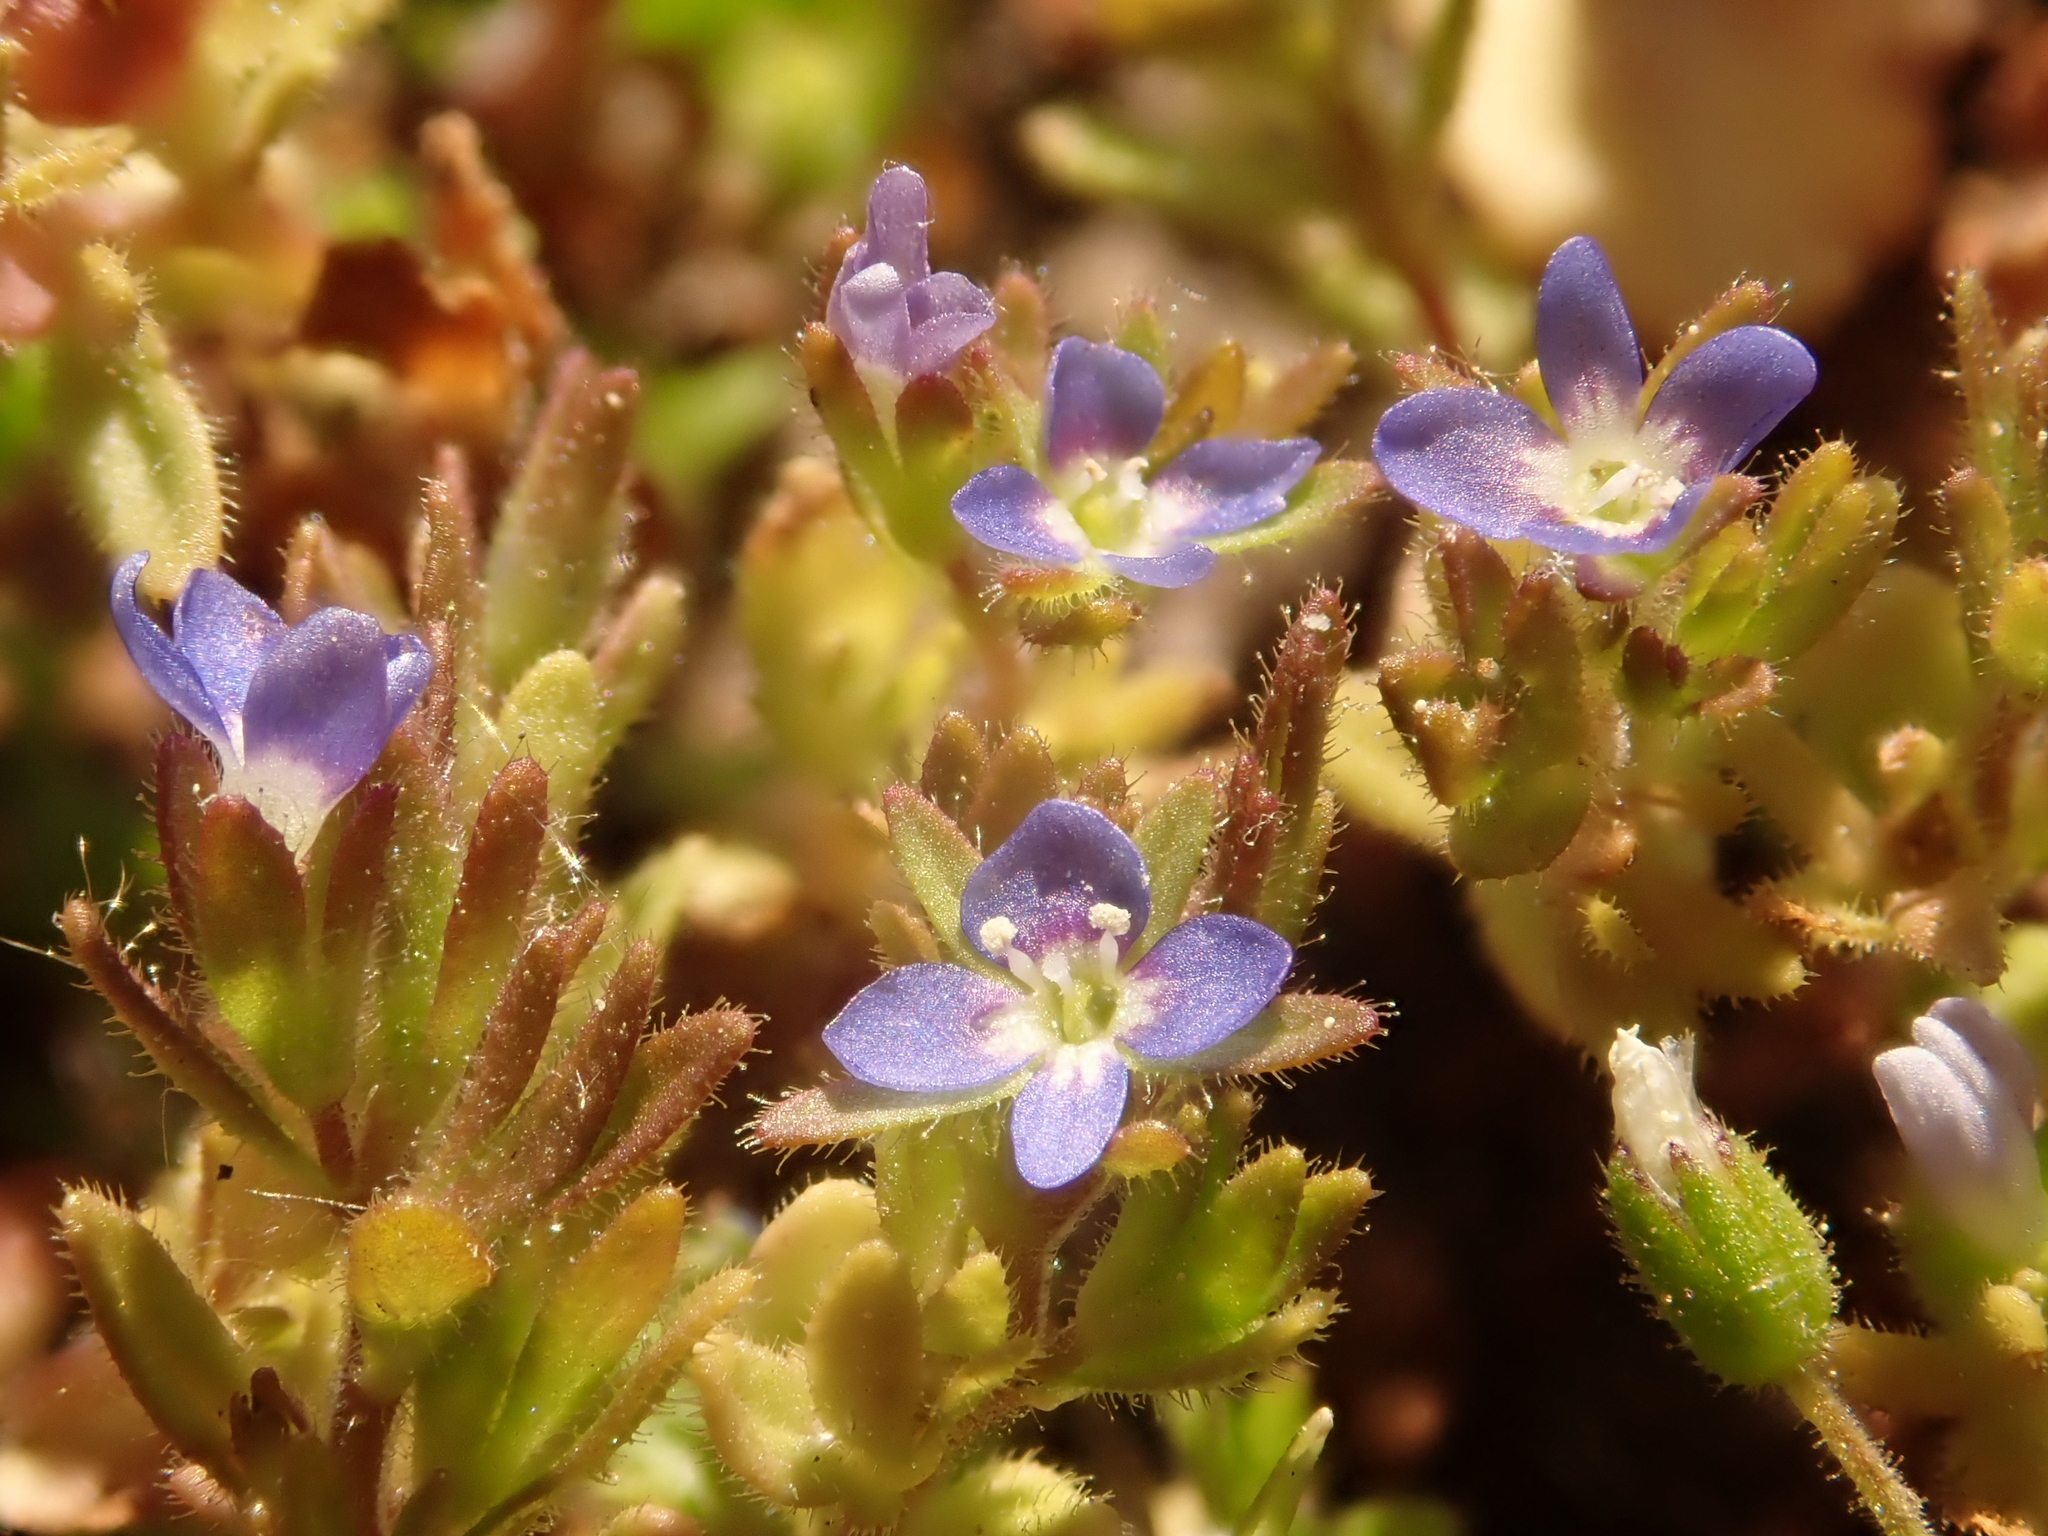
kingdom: Plantae
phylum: Tracheophyta
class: Magnoliopsida
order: Lamiales
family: Plantaginaceae
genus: Veronica
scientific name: Veronica arvensis
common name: Corn speedwell
